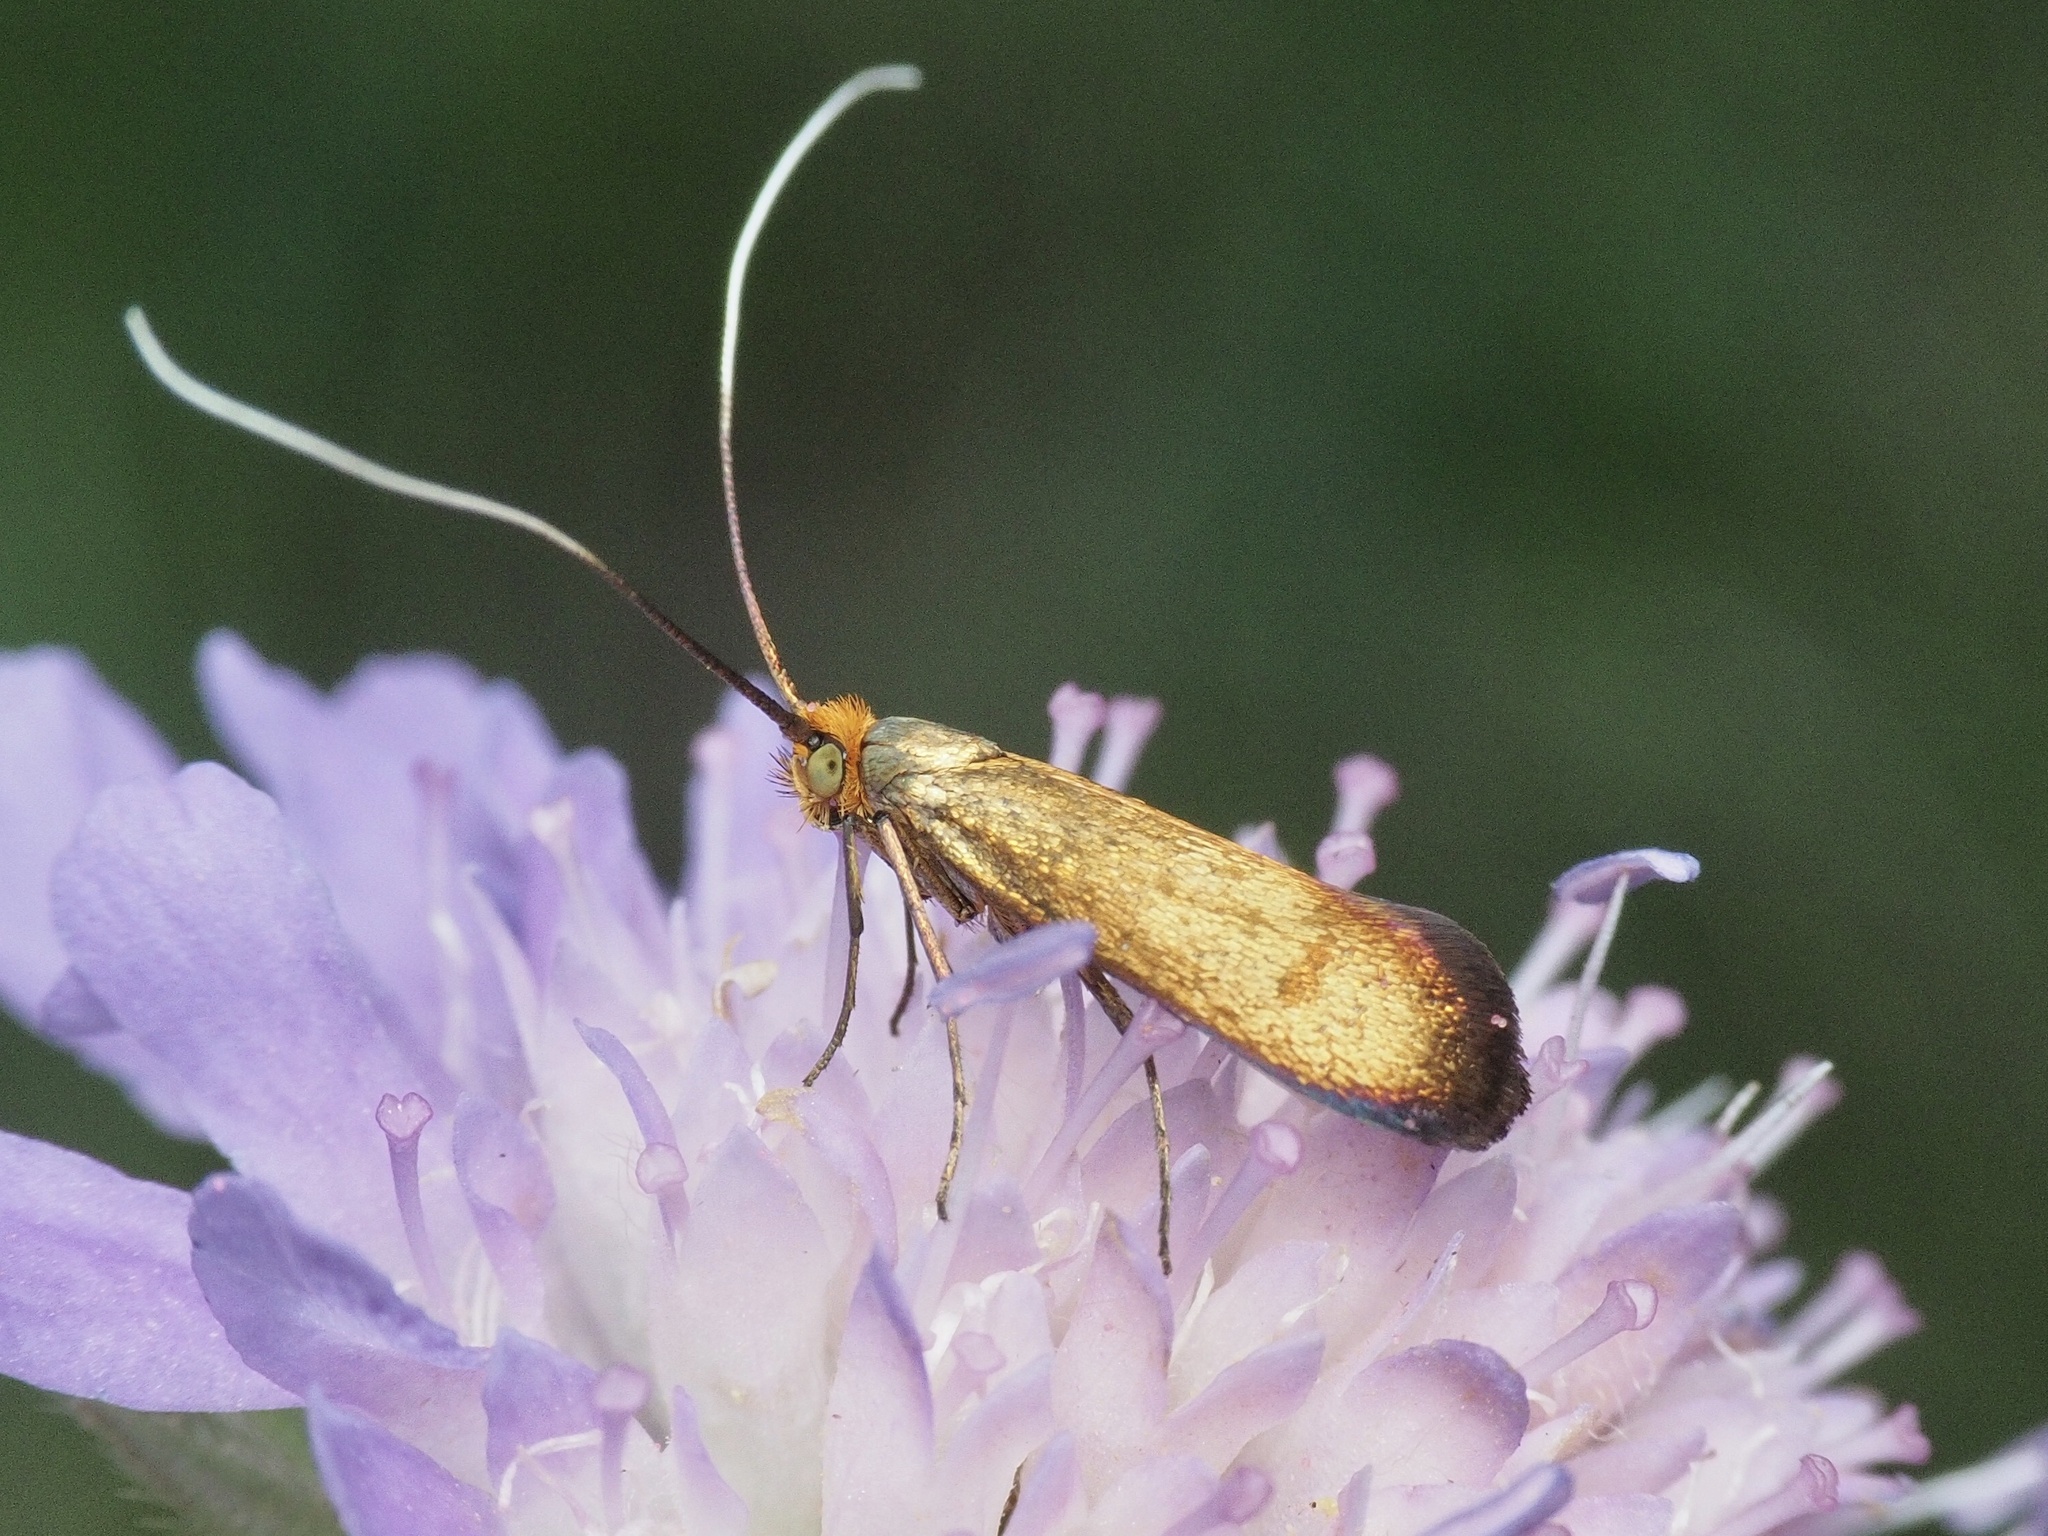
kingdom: Animalia
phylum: Arthropoda
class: Insecta
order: Lepidoptera
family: Adelidae
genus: Nemophora
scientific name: Nemophora metallica
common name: Brassy long-horn
